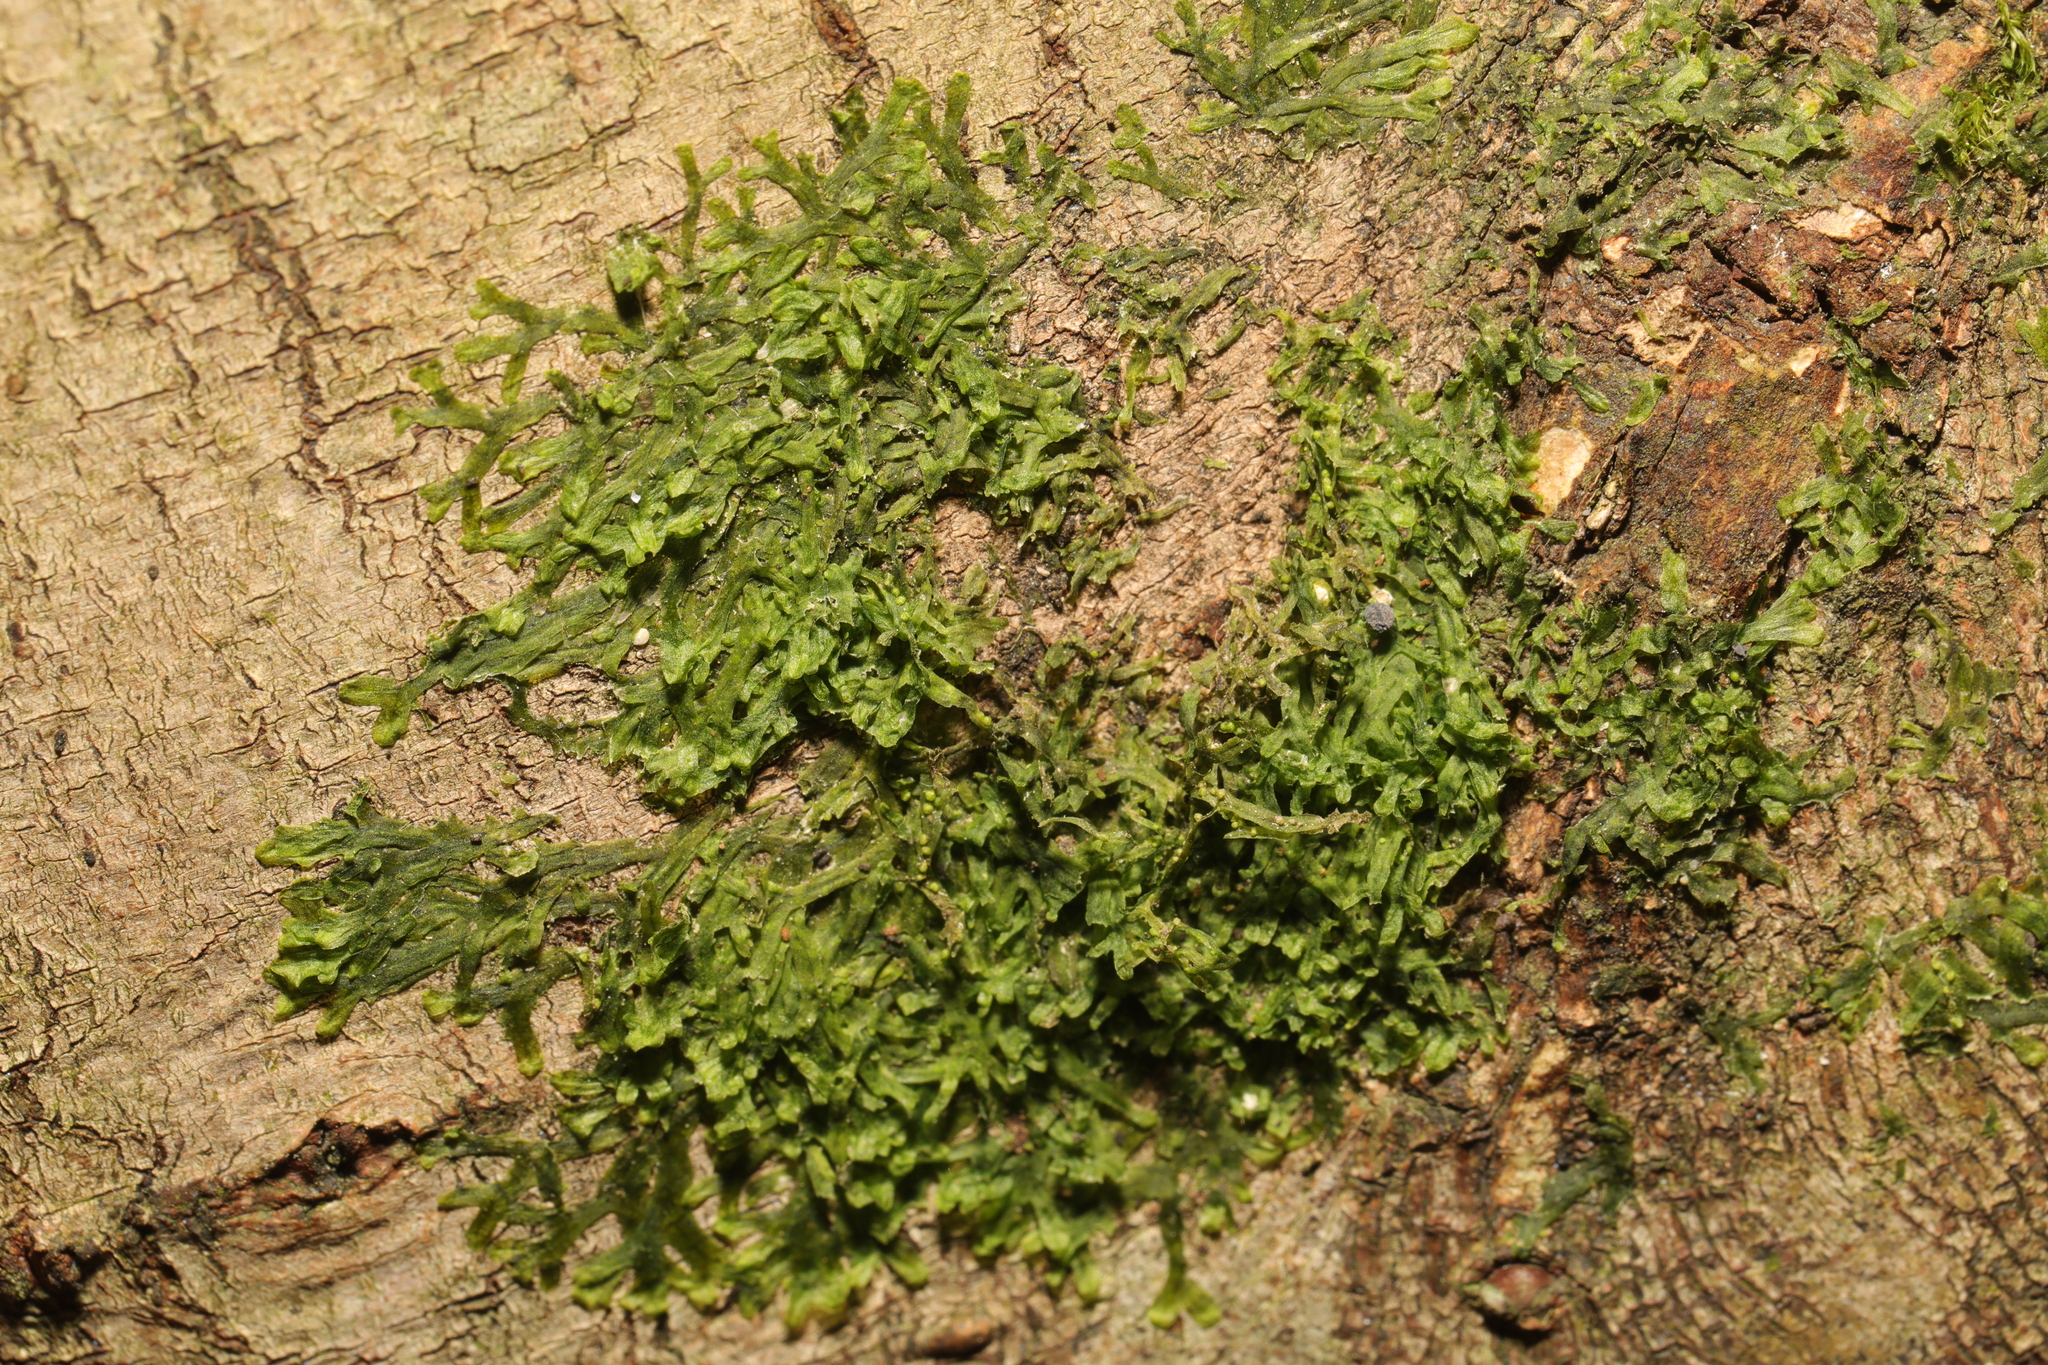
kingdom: Plantae
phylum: Marchantiophyta
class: Jungermanniopsida
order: Metzgeriales
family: Metzgeriaceae
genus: Metzgeria
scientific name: Metzgeria furcata
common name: Forked veilwort
